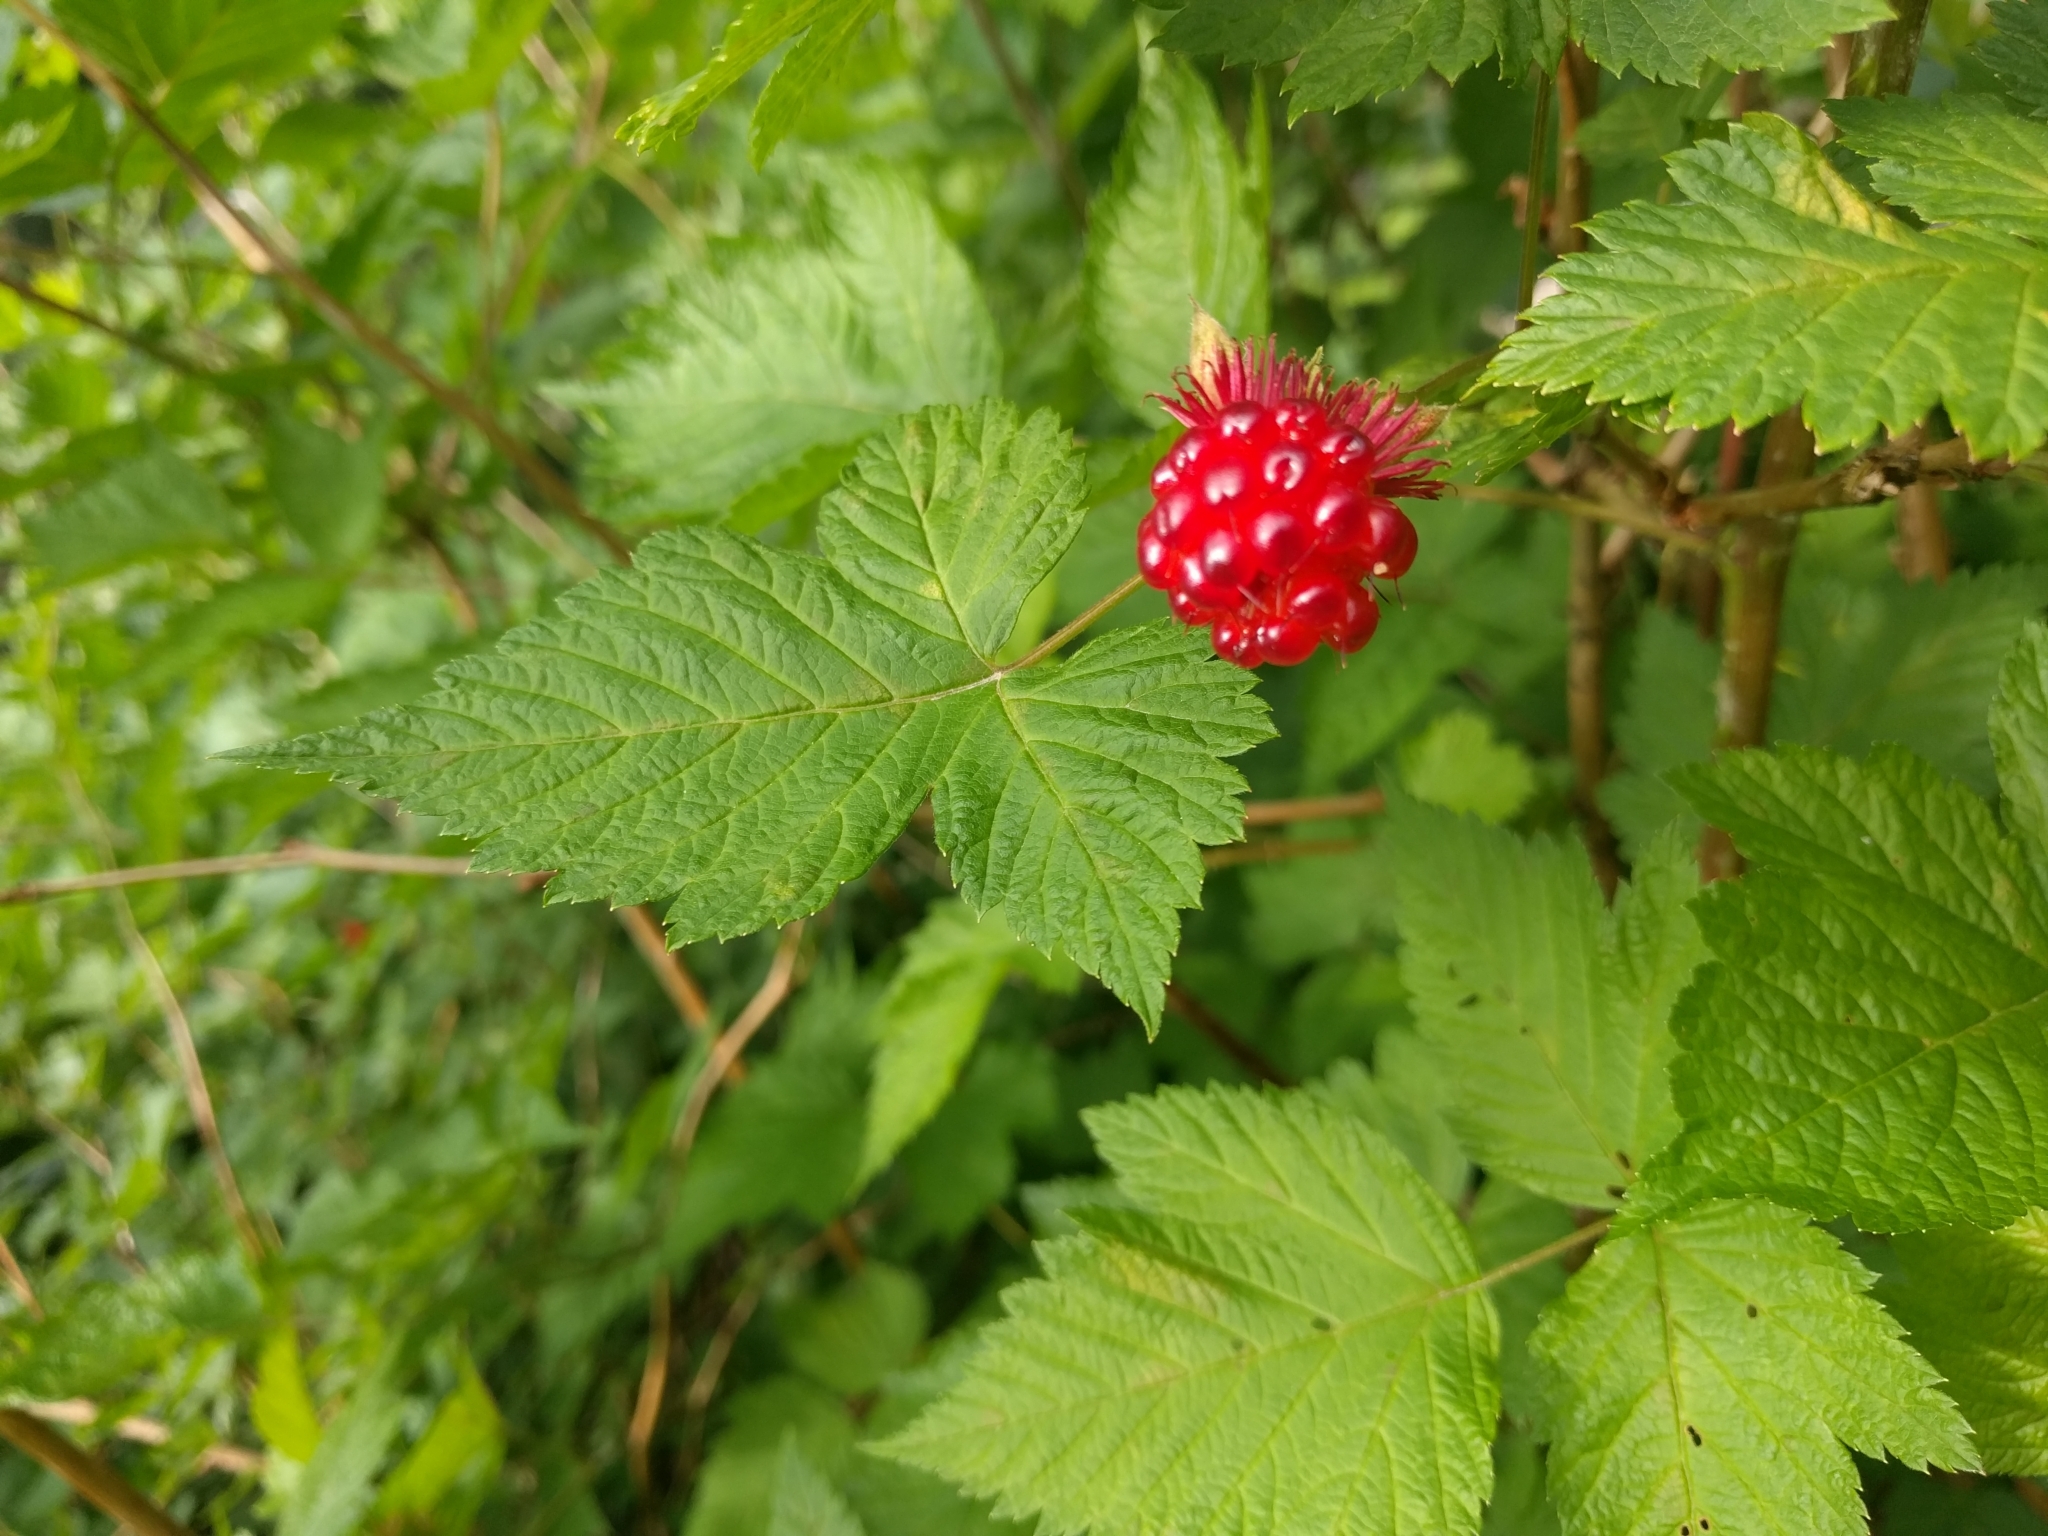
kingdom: Plantae
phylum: Tracheophyta
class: Magnoliopsida
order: Rosales
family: Rosaceae
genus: Rubus
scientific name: Rubus spectabilis
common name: Salmonberry
